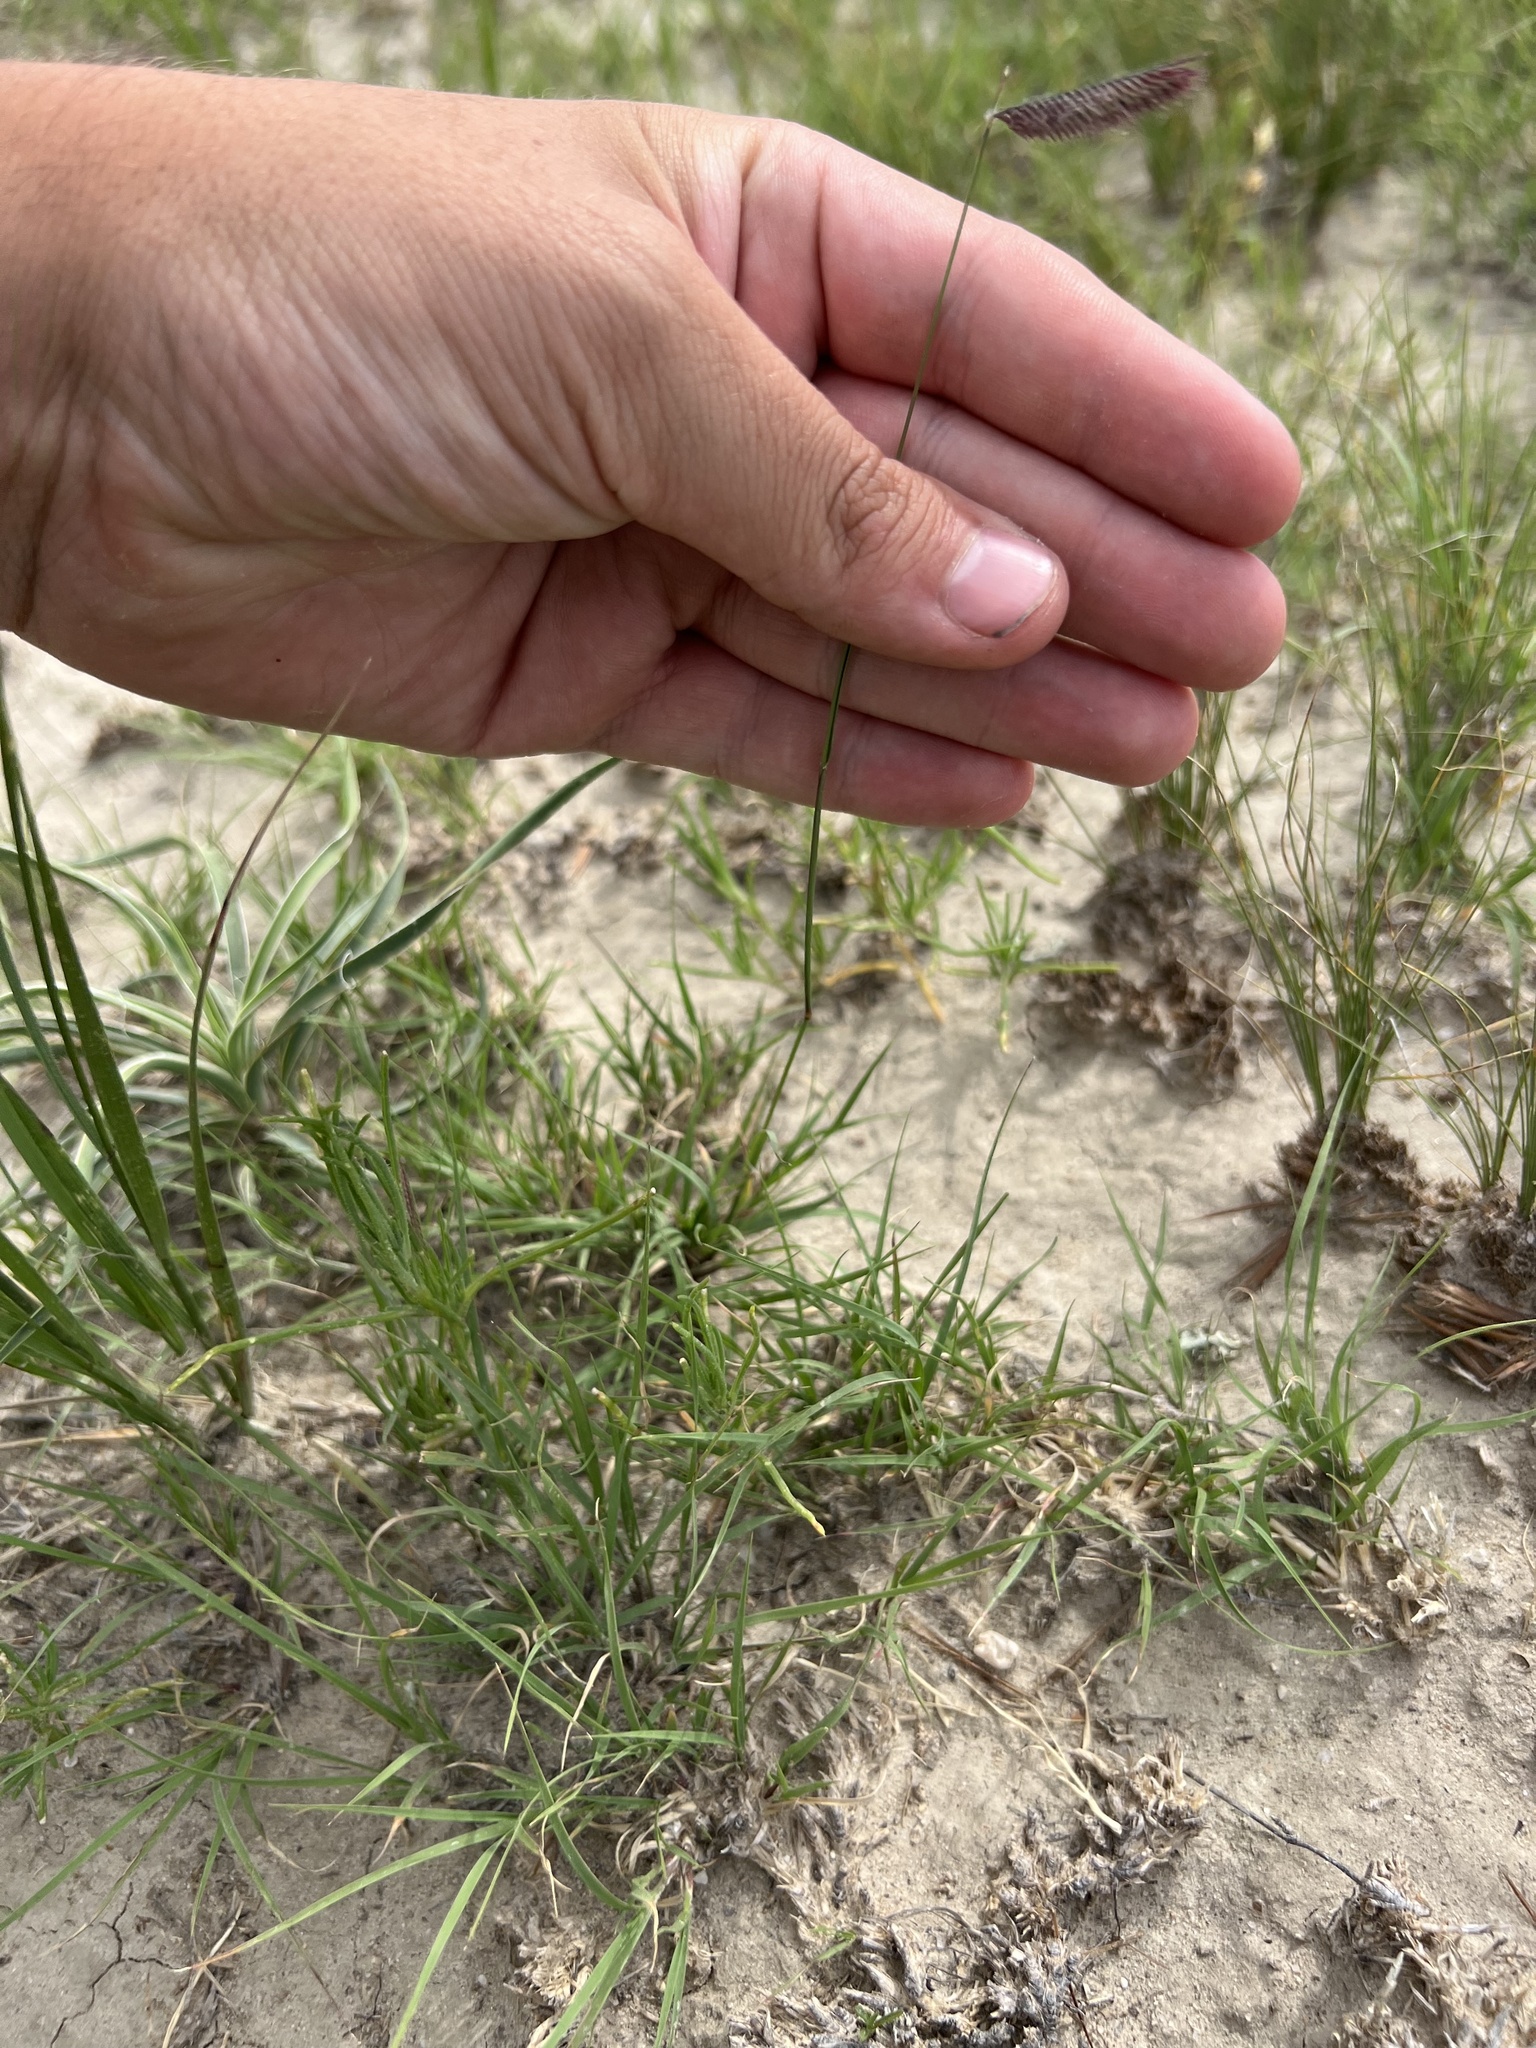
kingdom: Plantae
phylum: Tracheophyta
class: Liliopsida
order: Poales
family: Poaceae
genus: Bouteloua
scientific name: Bouteloua gracilis
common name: Blue grama
